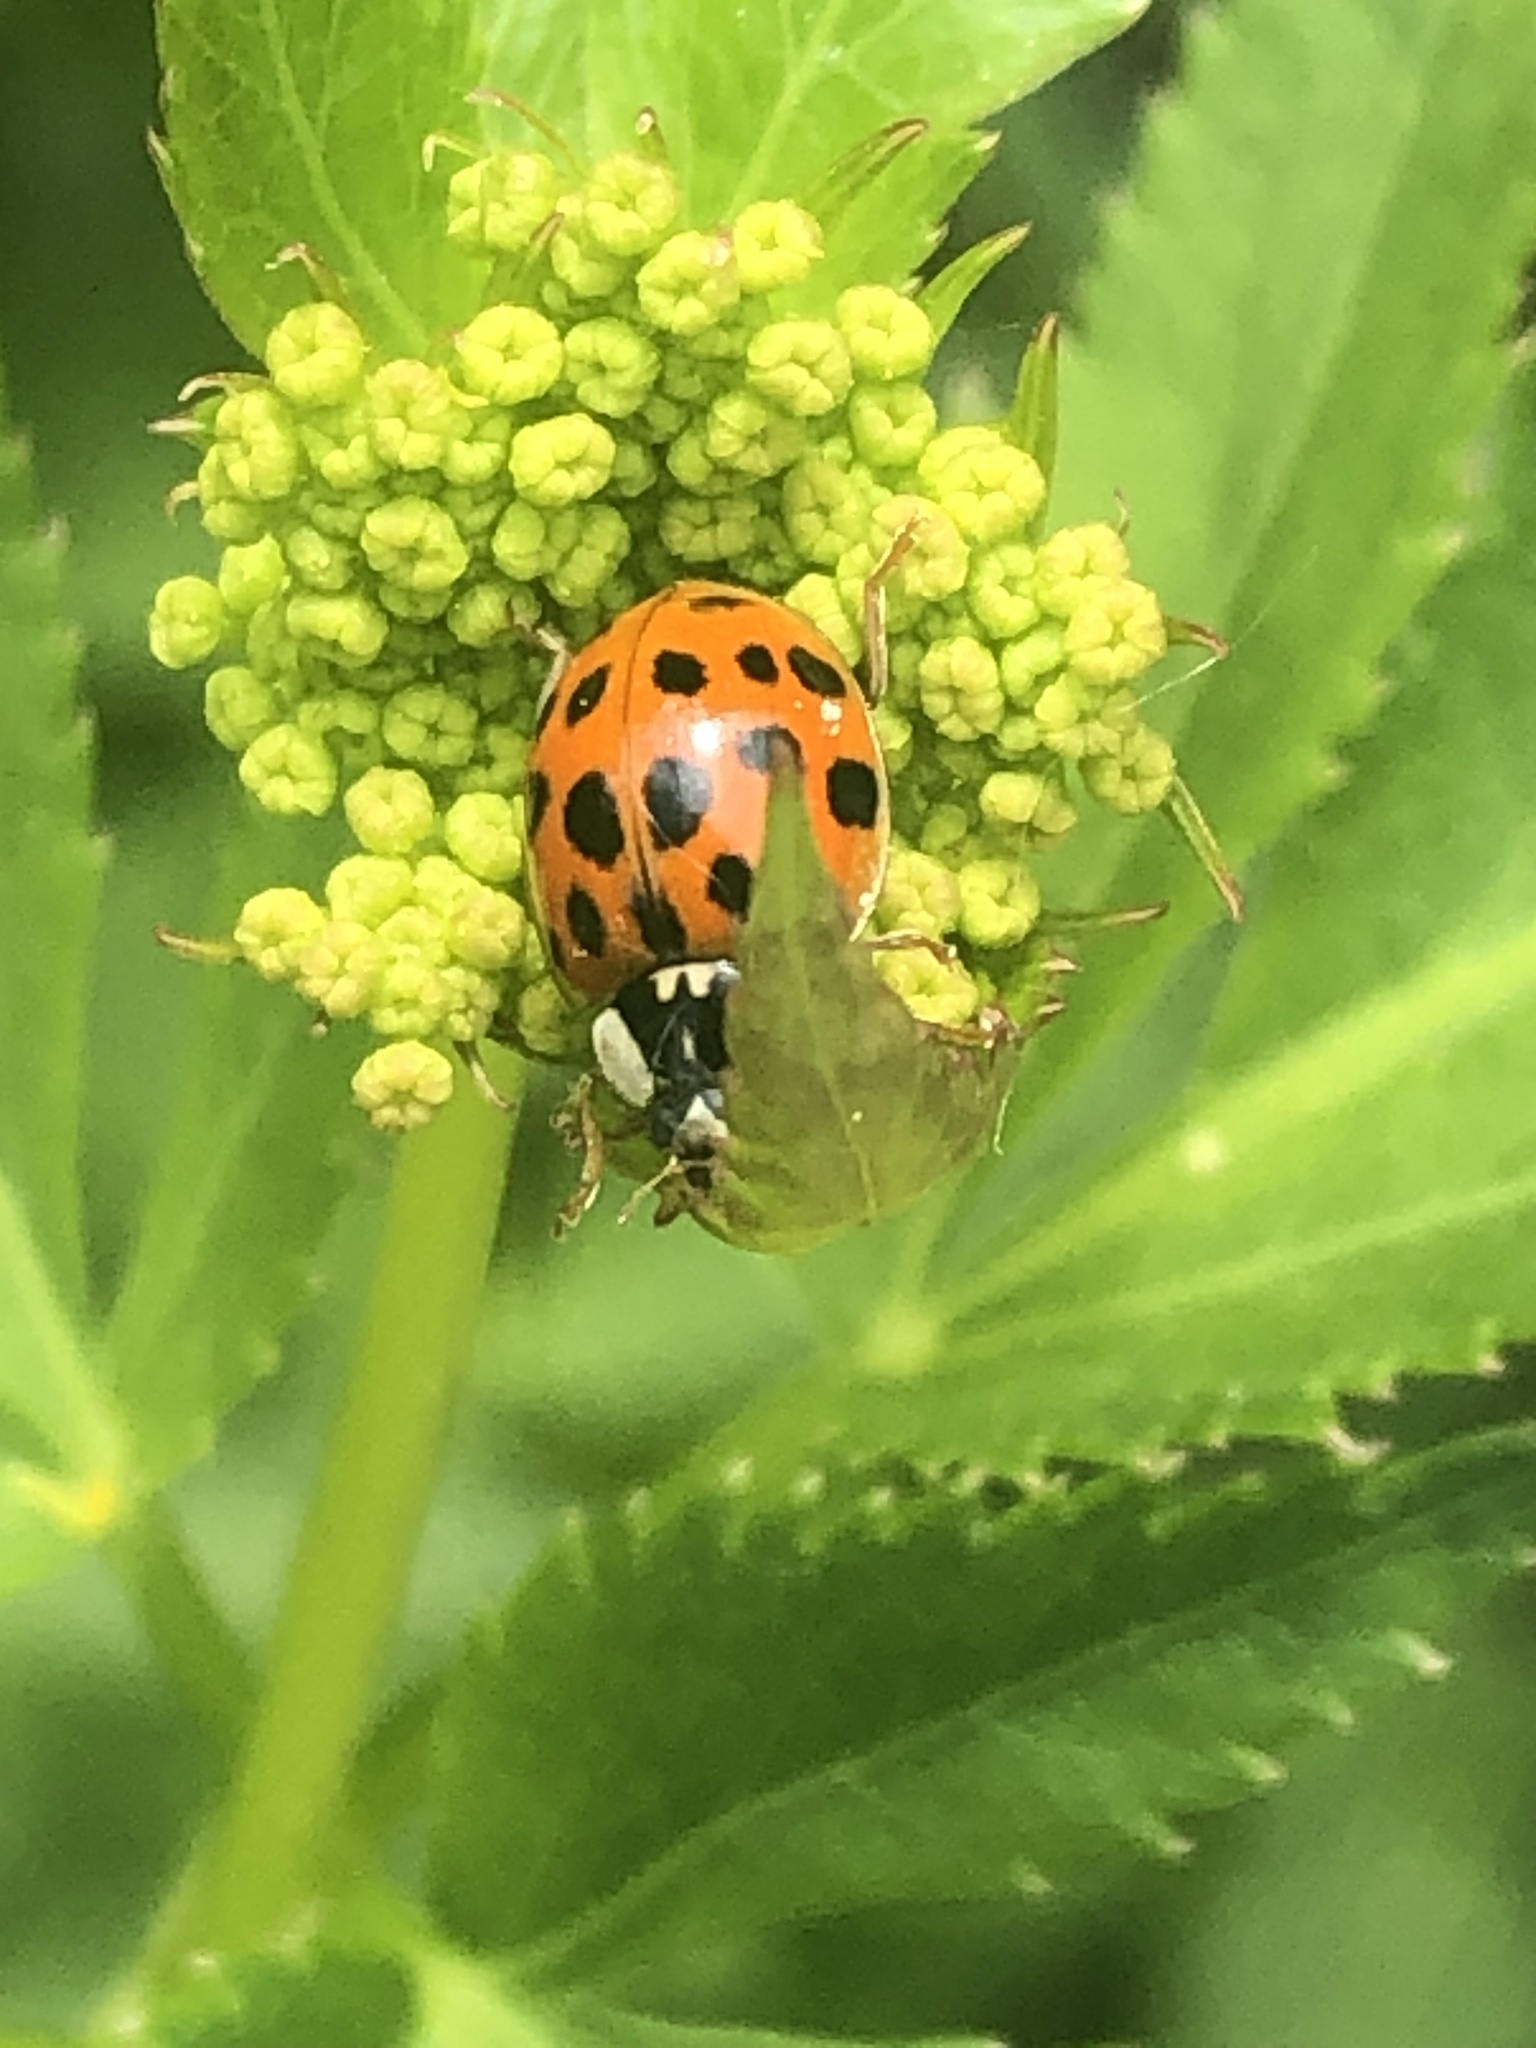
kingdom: Animalia
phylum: Arthropoda
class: Insecta
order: Coleoptera
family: Coccinellidae
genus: Harmonia
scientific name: Harmonia axyridis
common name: Harlequin ladybird
